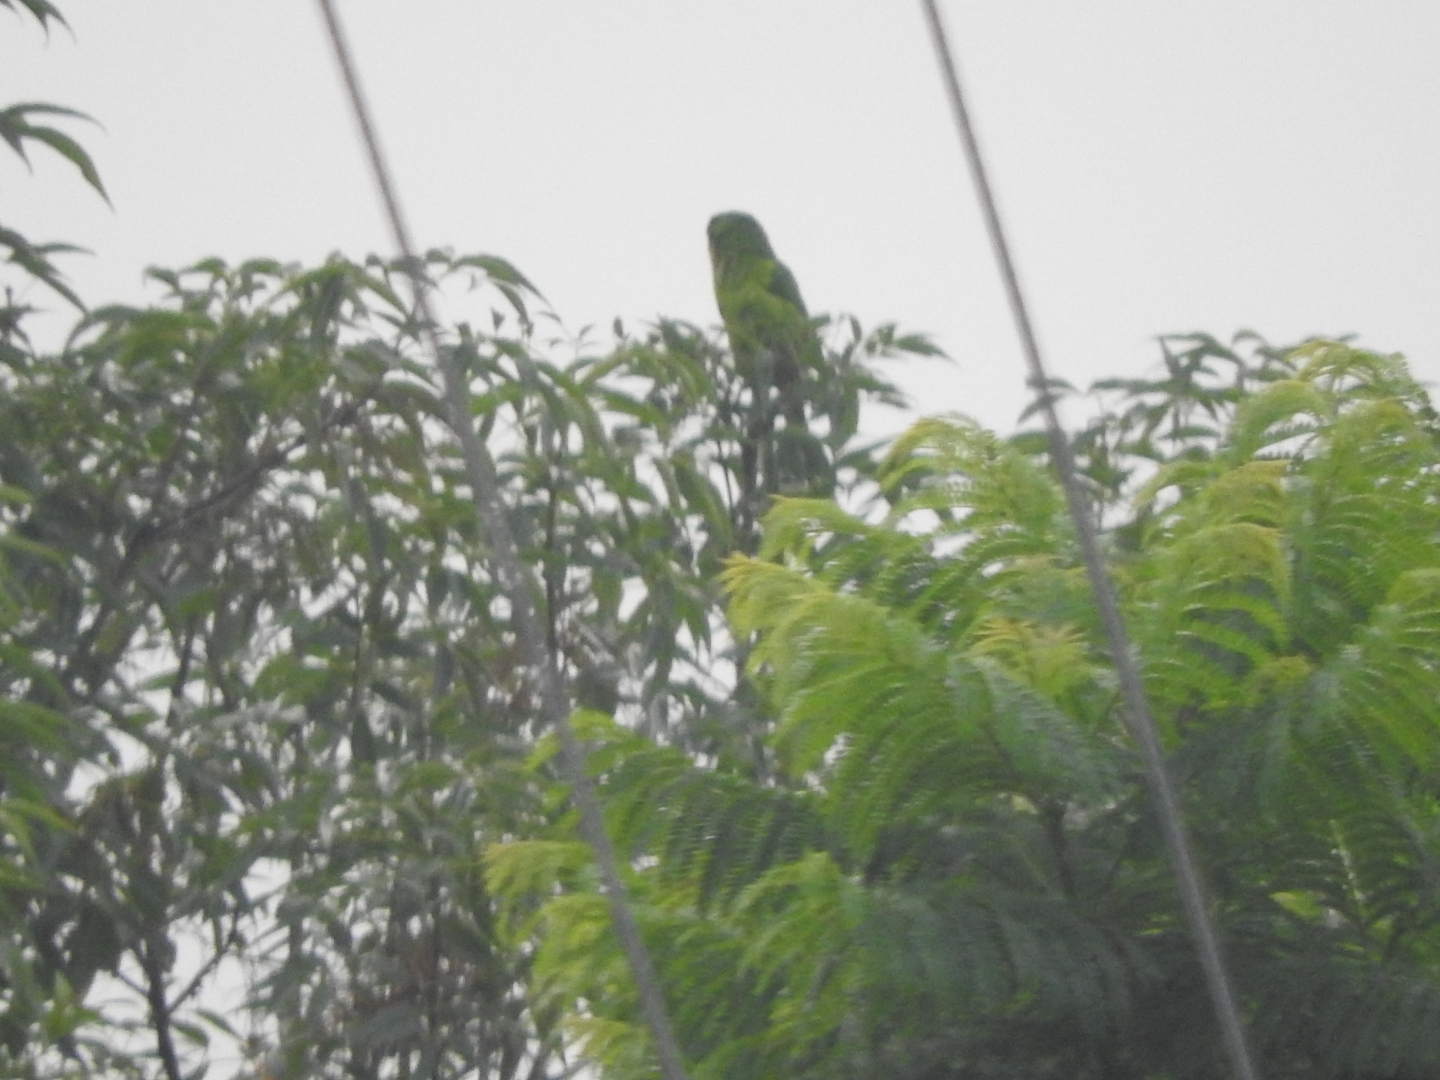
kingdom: Animalia
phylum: Chordata
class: Aves
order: Psittaciformes
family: Psittacidae
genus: Aratinga
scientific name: Aratinga holochlora
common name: Green parakeet
